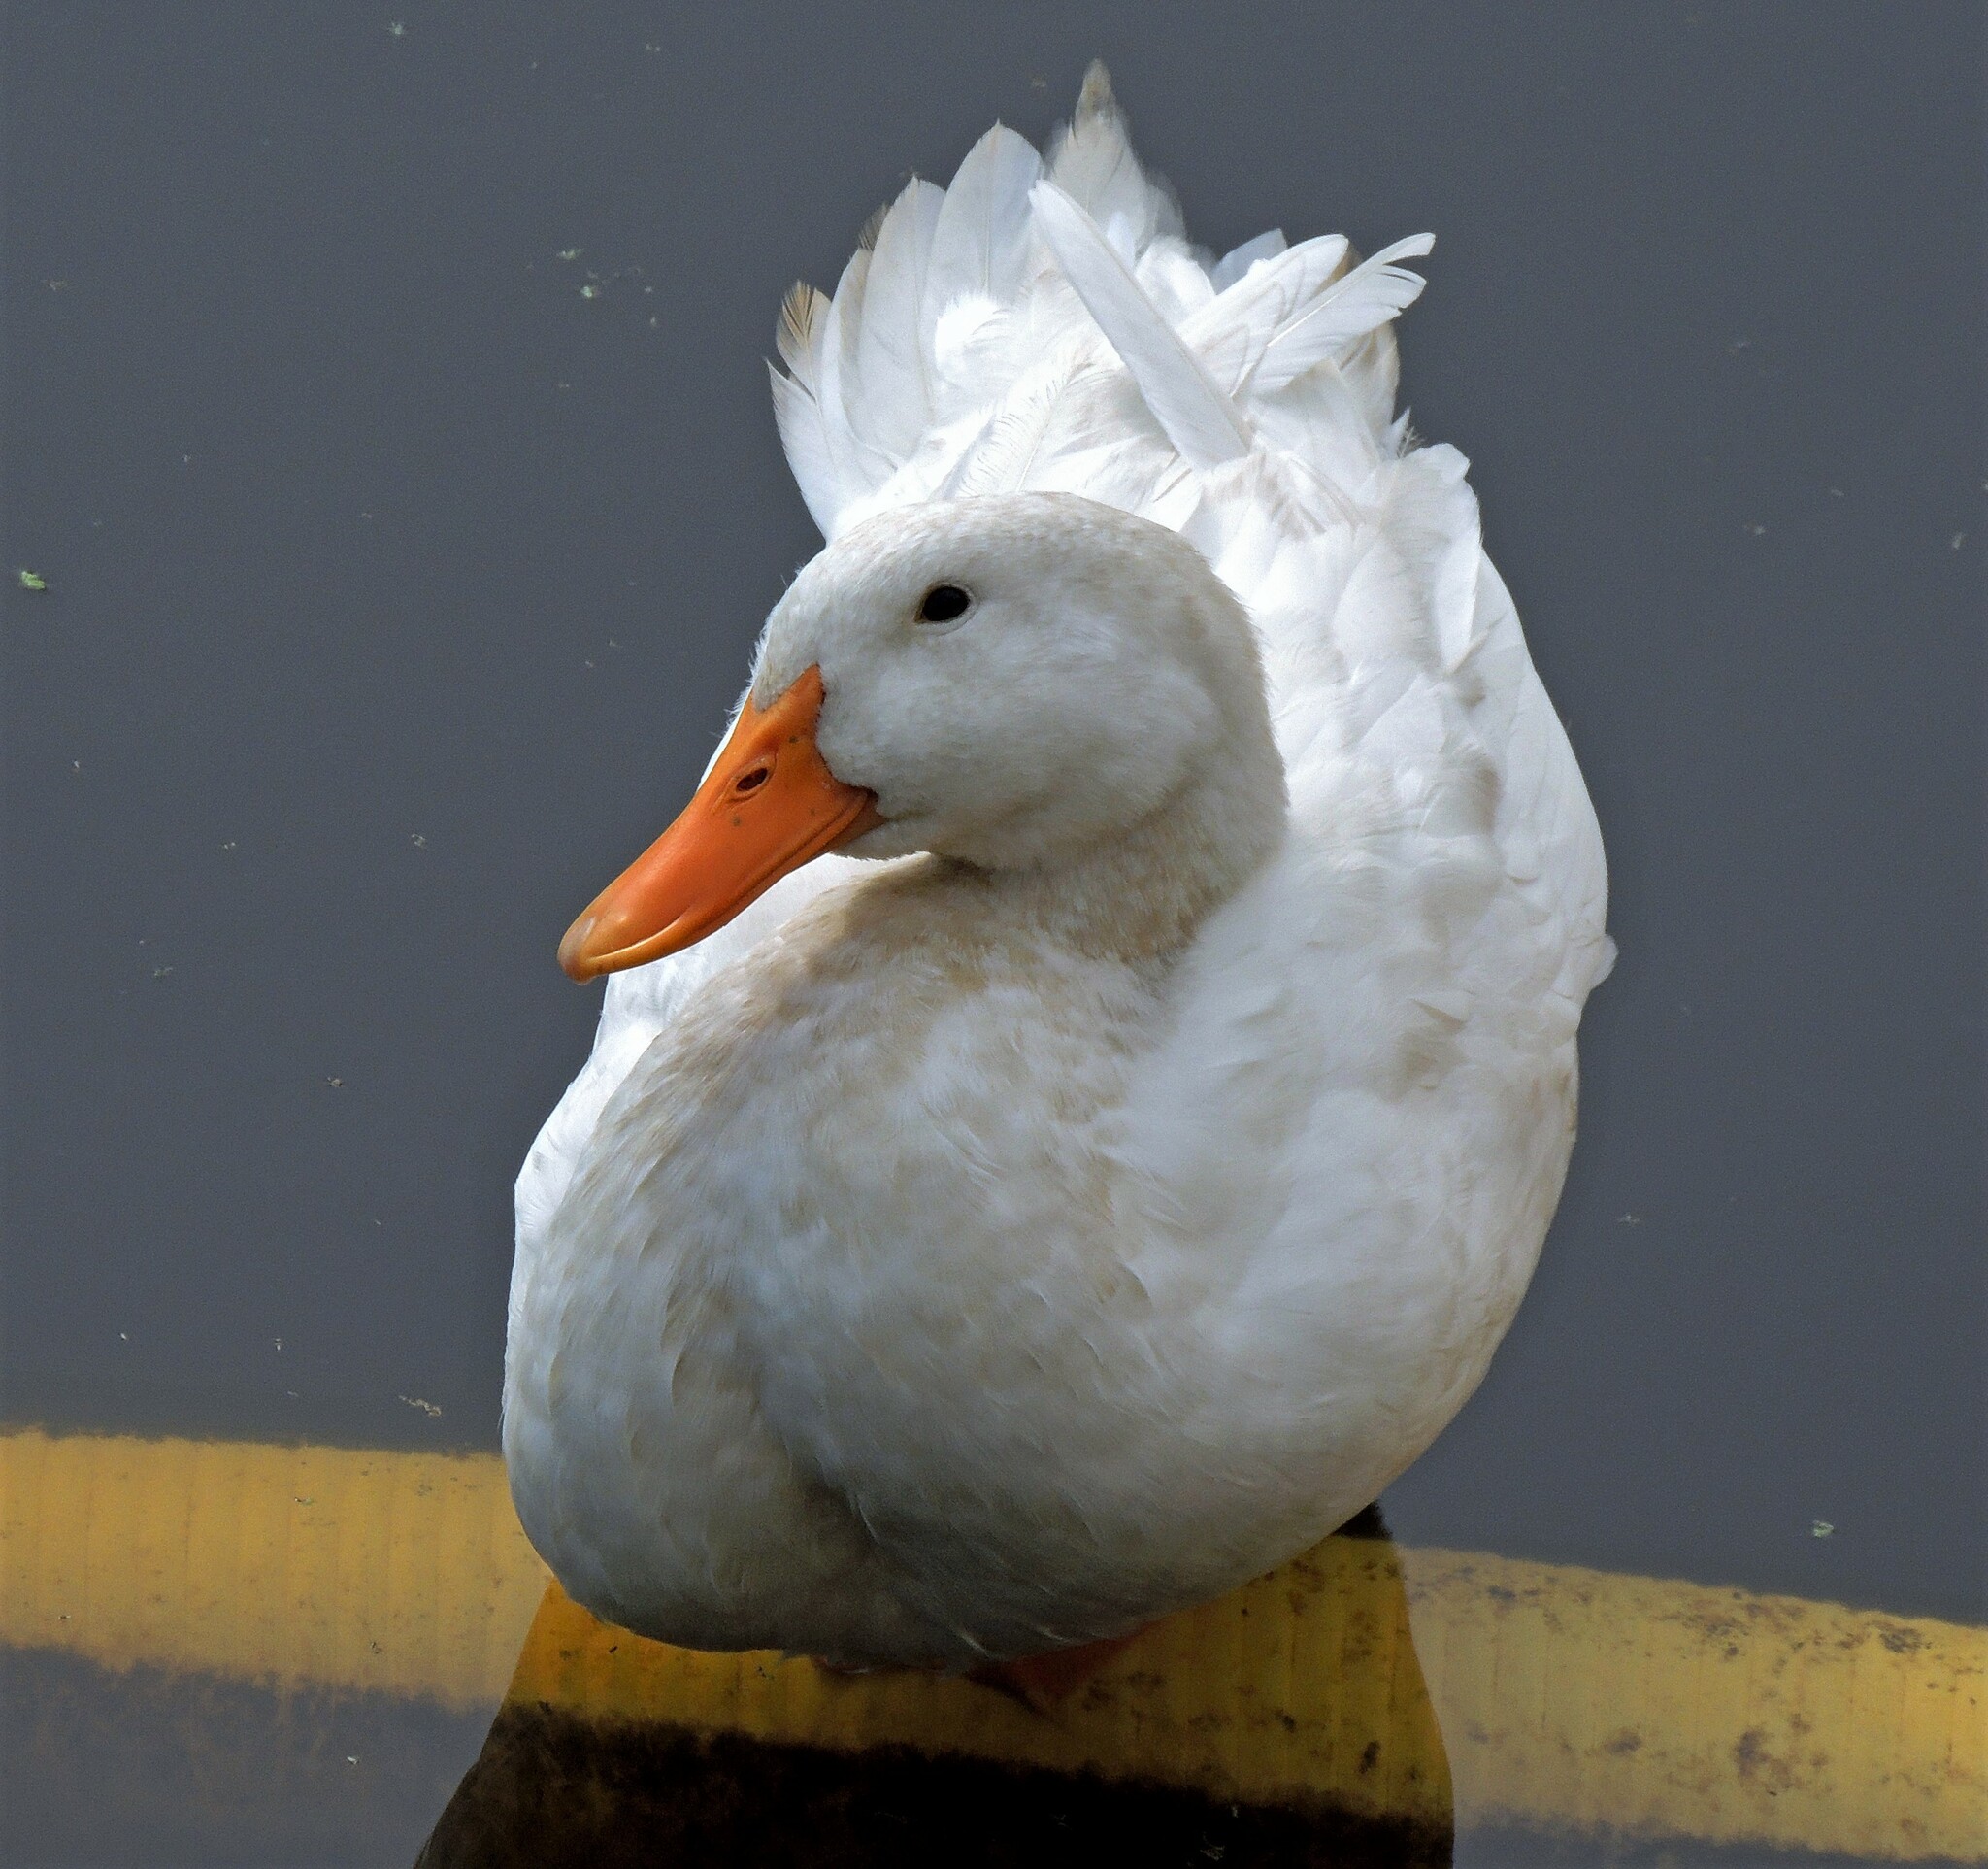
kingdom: Animalia
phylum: Chordata
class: Aves
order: Anseriformes
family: Anatidae
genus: Anas
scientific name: Anas platyrhynchos
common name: Mallard
